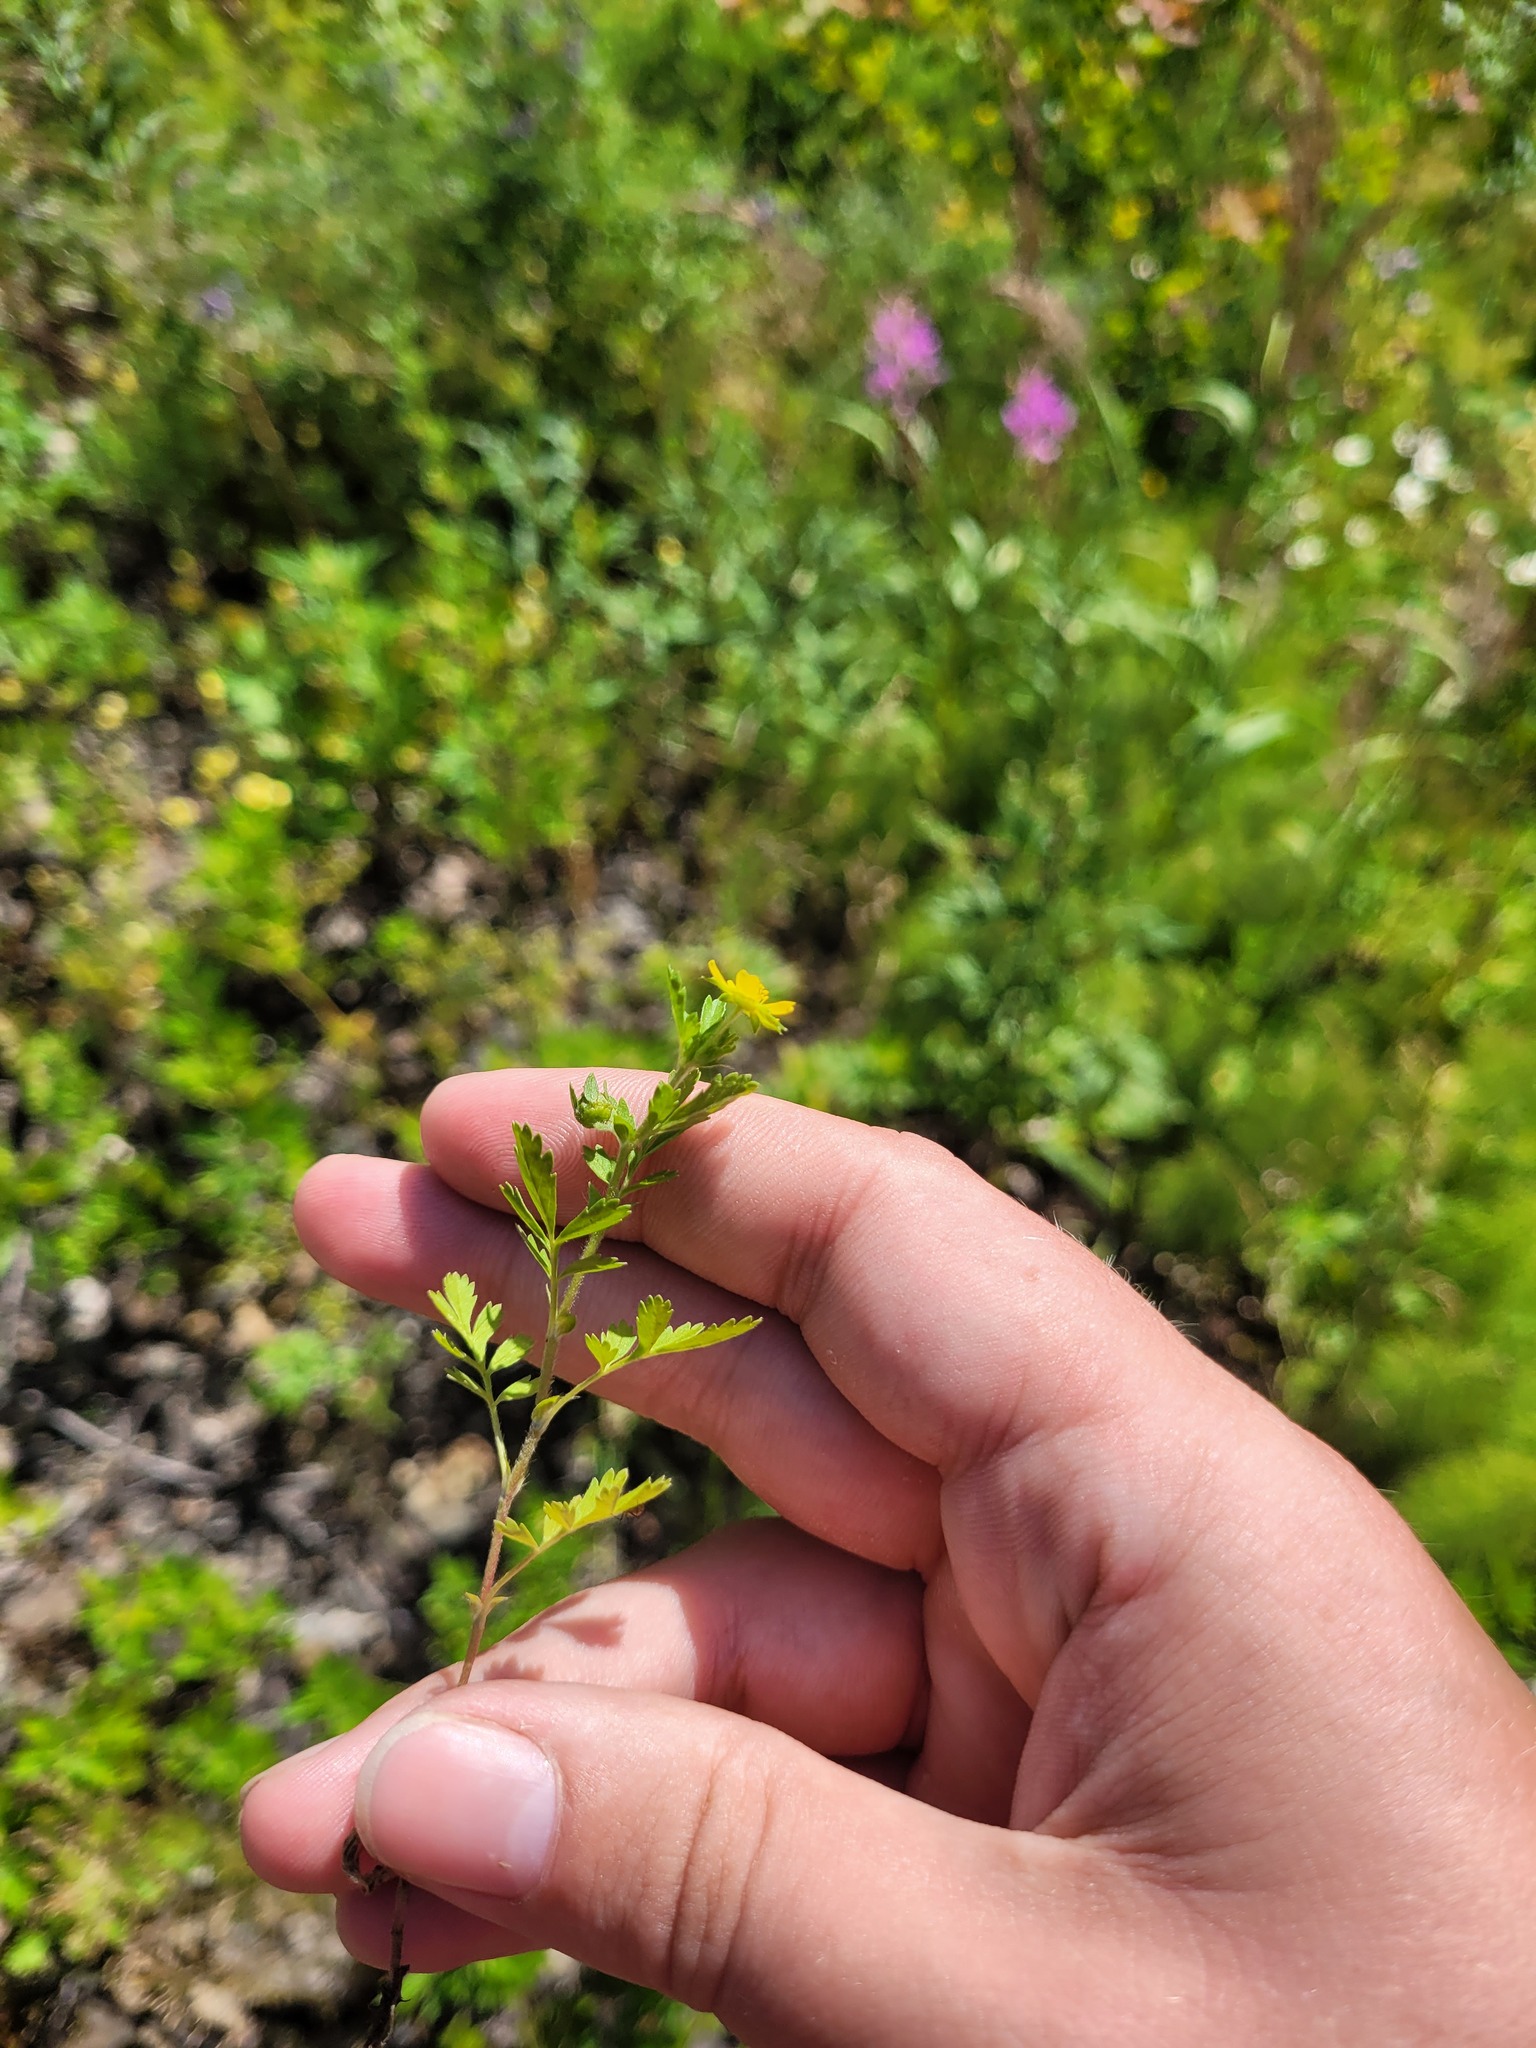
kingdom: Plantae
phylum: Tracheophyta
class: Magnoliopsida
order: Rosales
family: Rosaceae
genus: Potentilla
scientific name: Potentilla supina
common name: Prostrate cinquefoil
